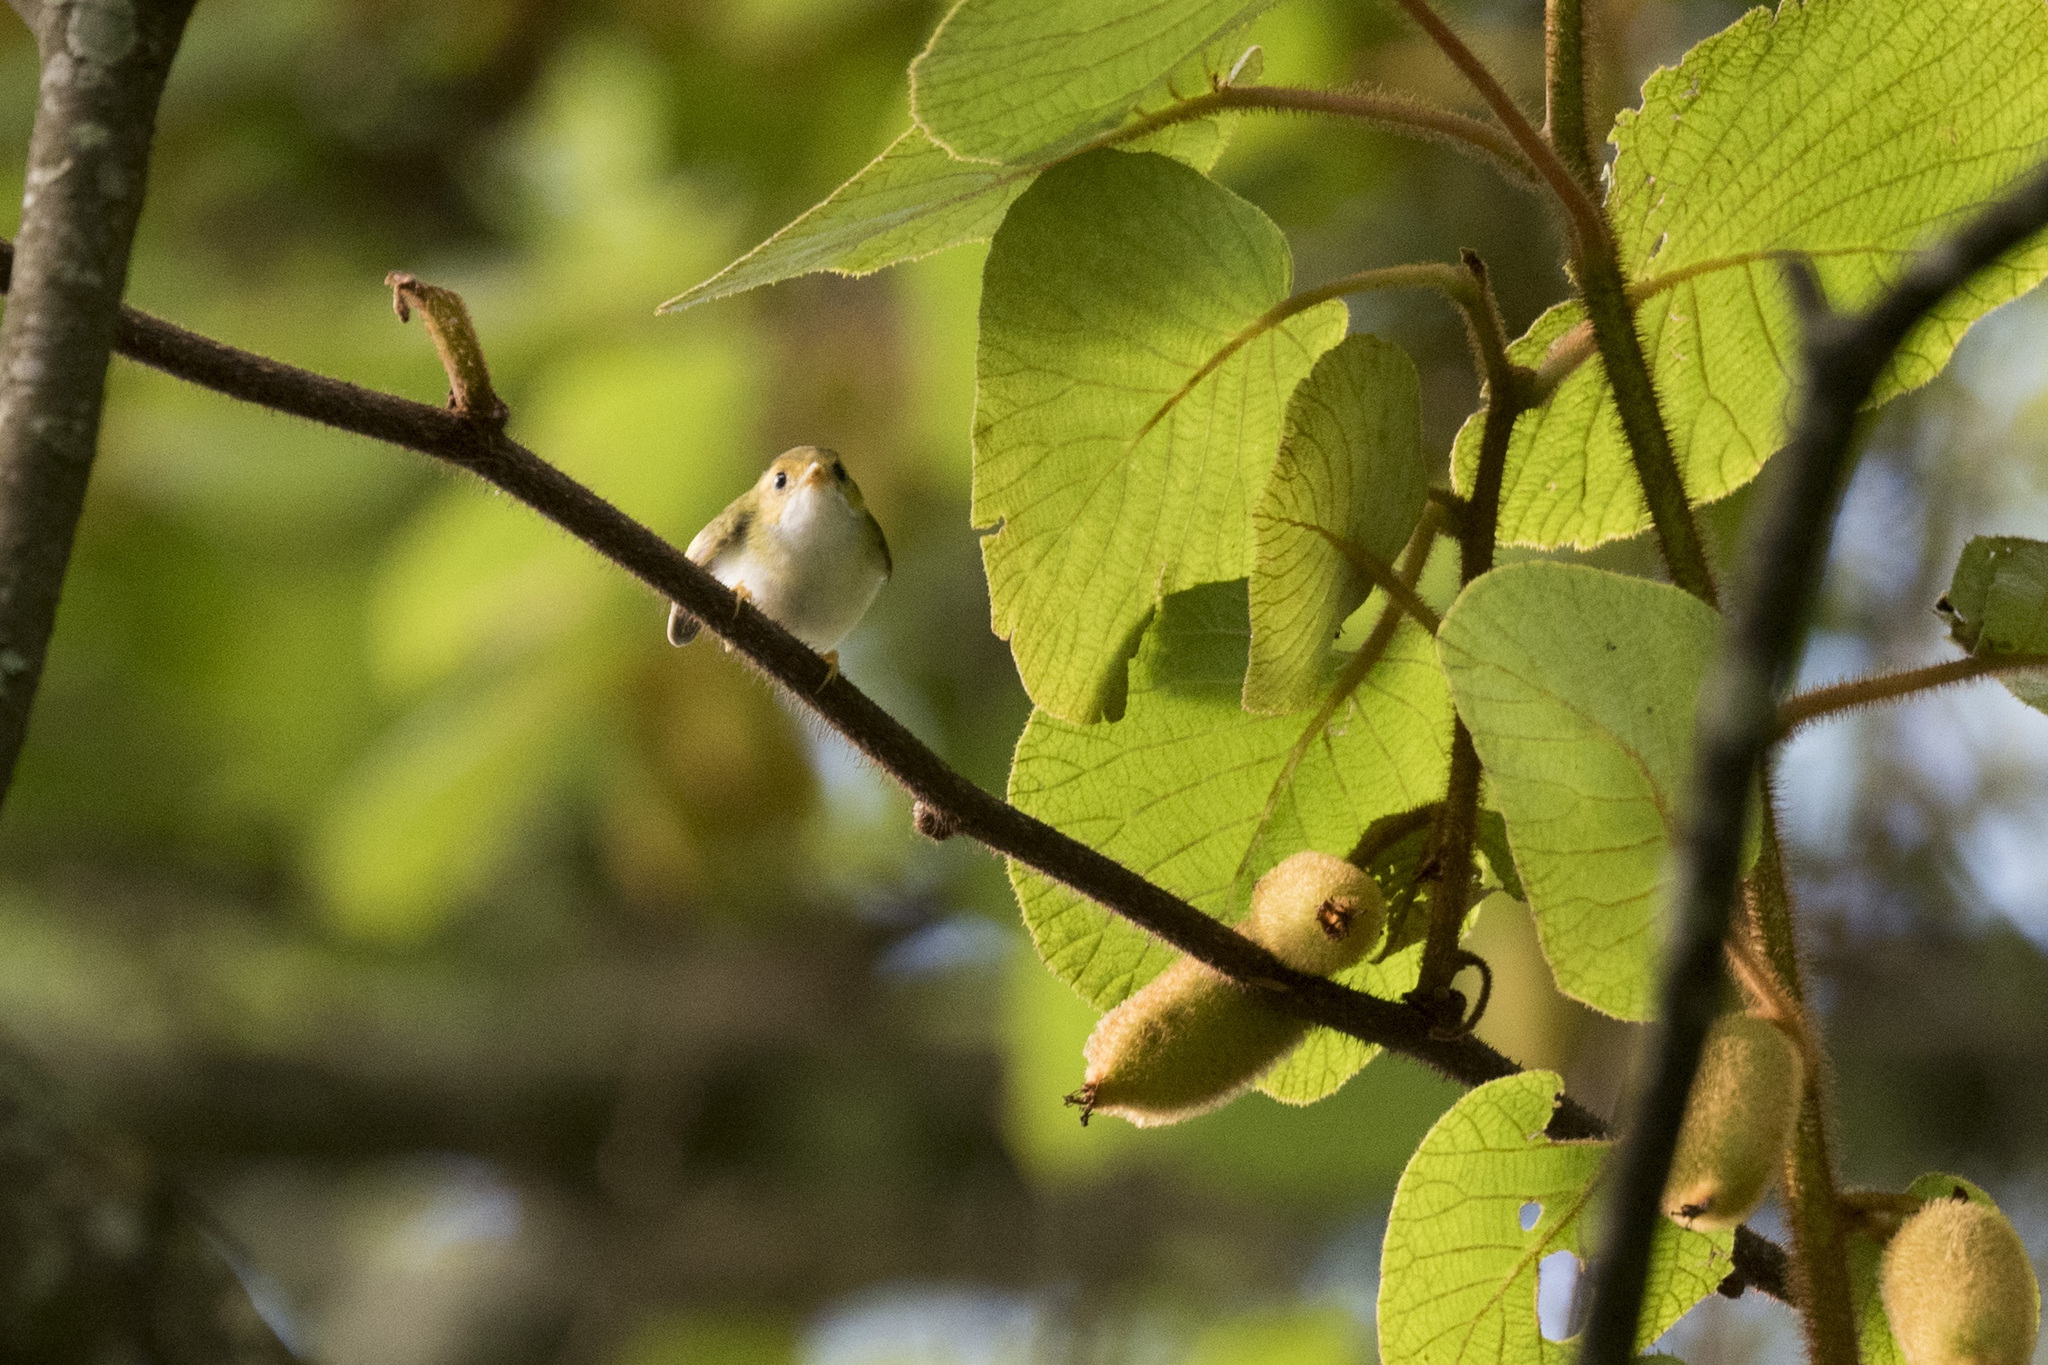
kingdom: Animalia
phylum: Chordata
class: Aves
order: Passeriformes
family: Cettiidae
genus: Abroscopus
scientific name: Abroscopus albogularis
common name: Rufous-faced warbler
